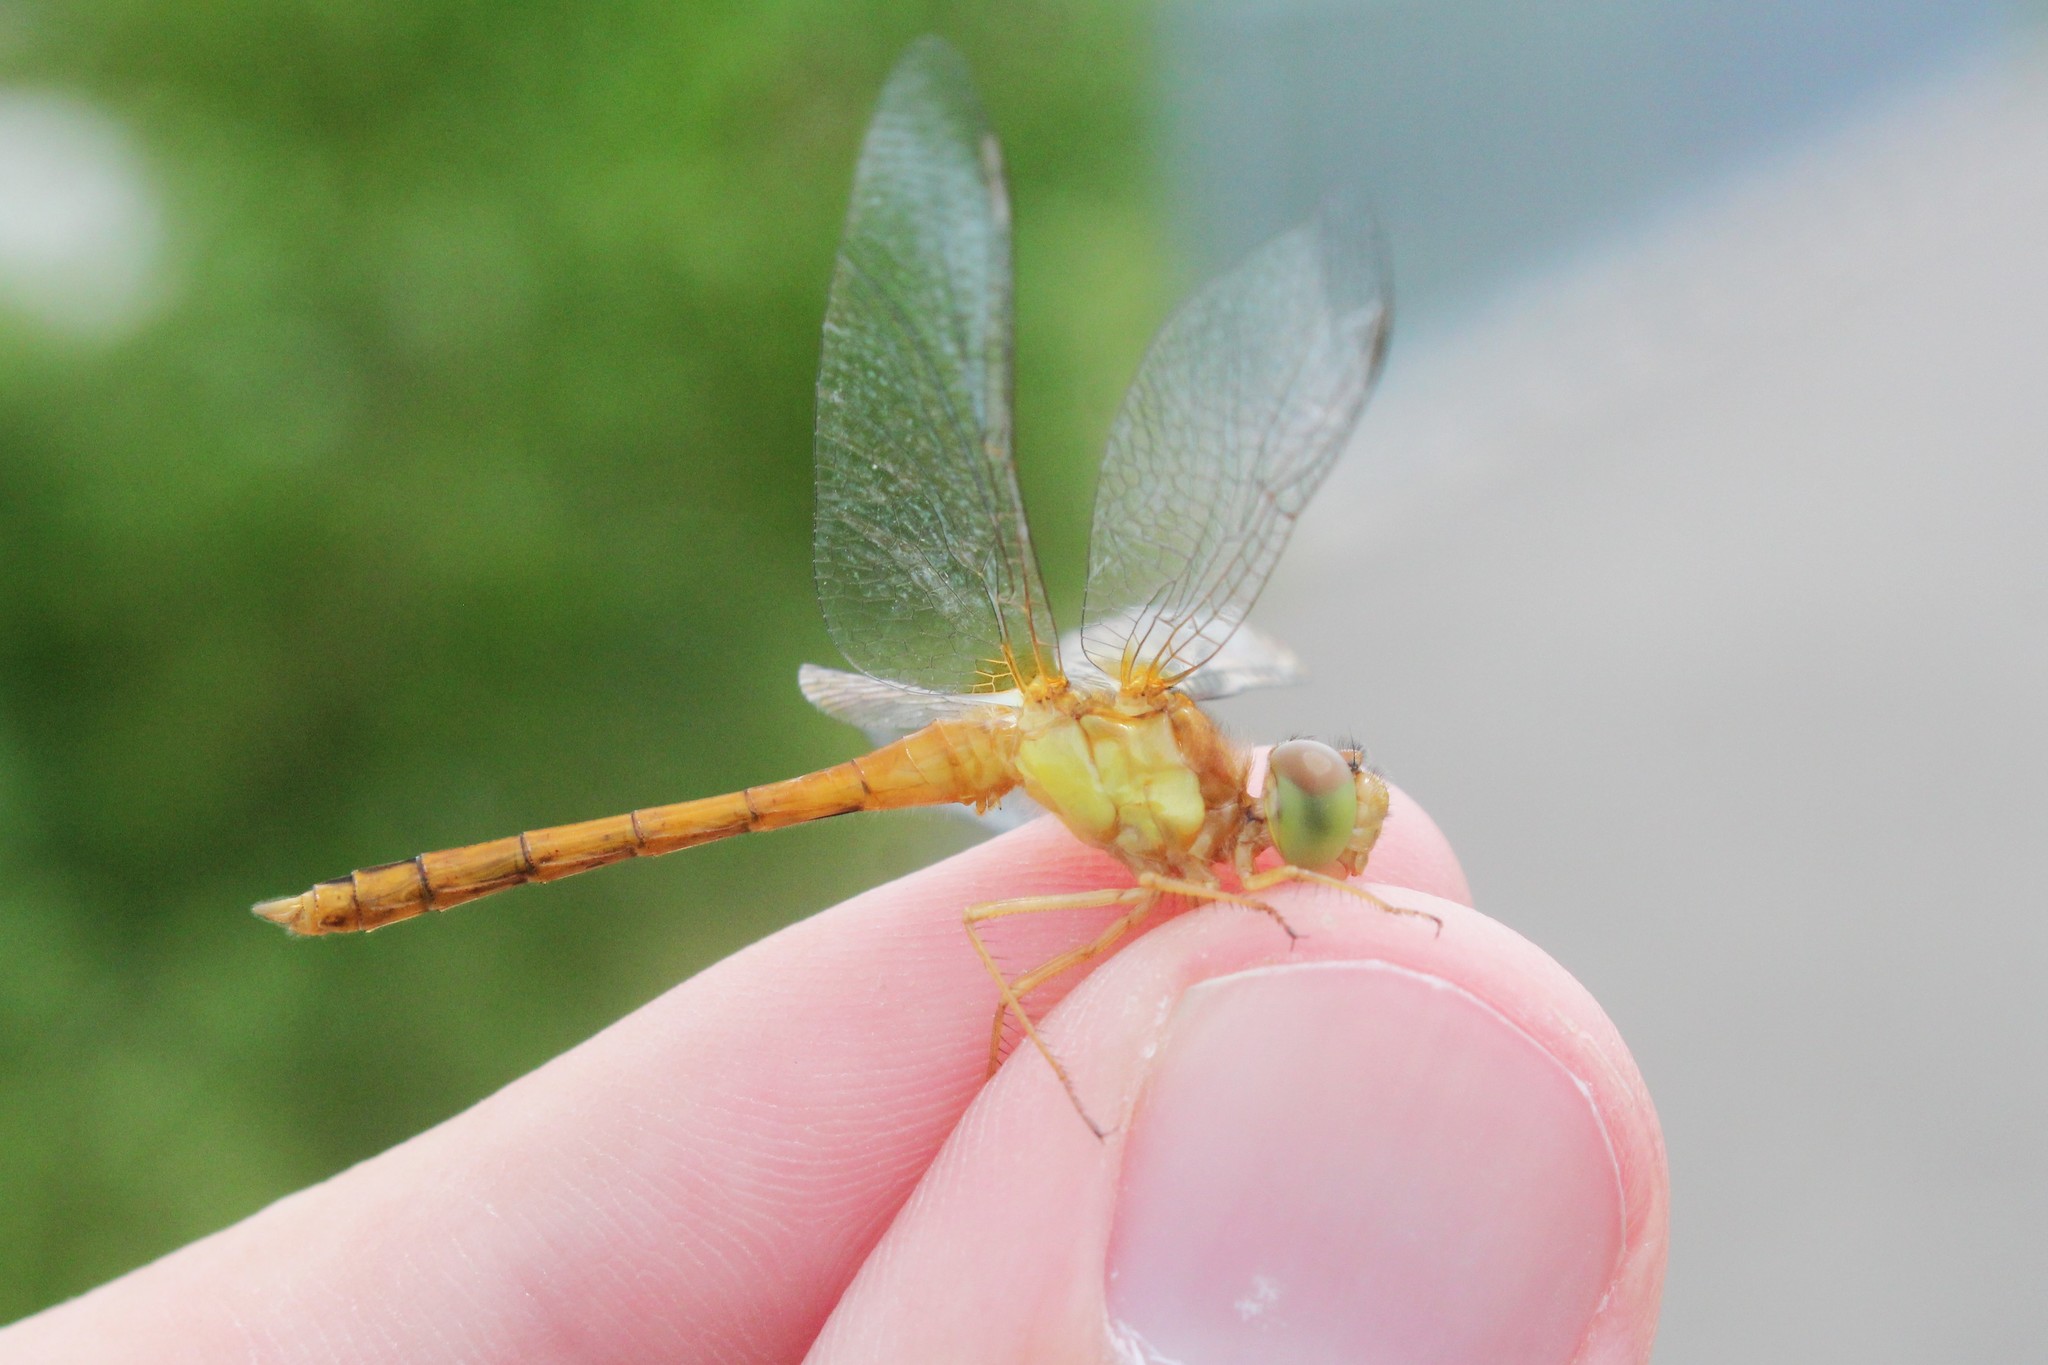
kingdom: Animalia
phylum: Arthropoda
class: Insecta
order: Odonata
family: Libellulidae
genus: Sympetrum
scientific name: Sympetrum vicinum
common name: Autumn meadowhawk
